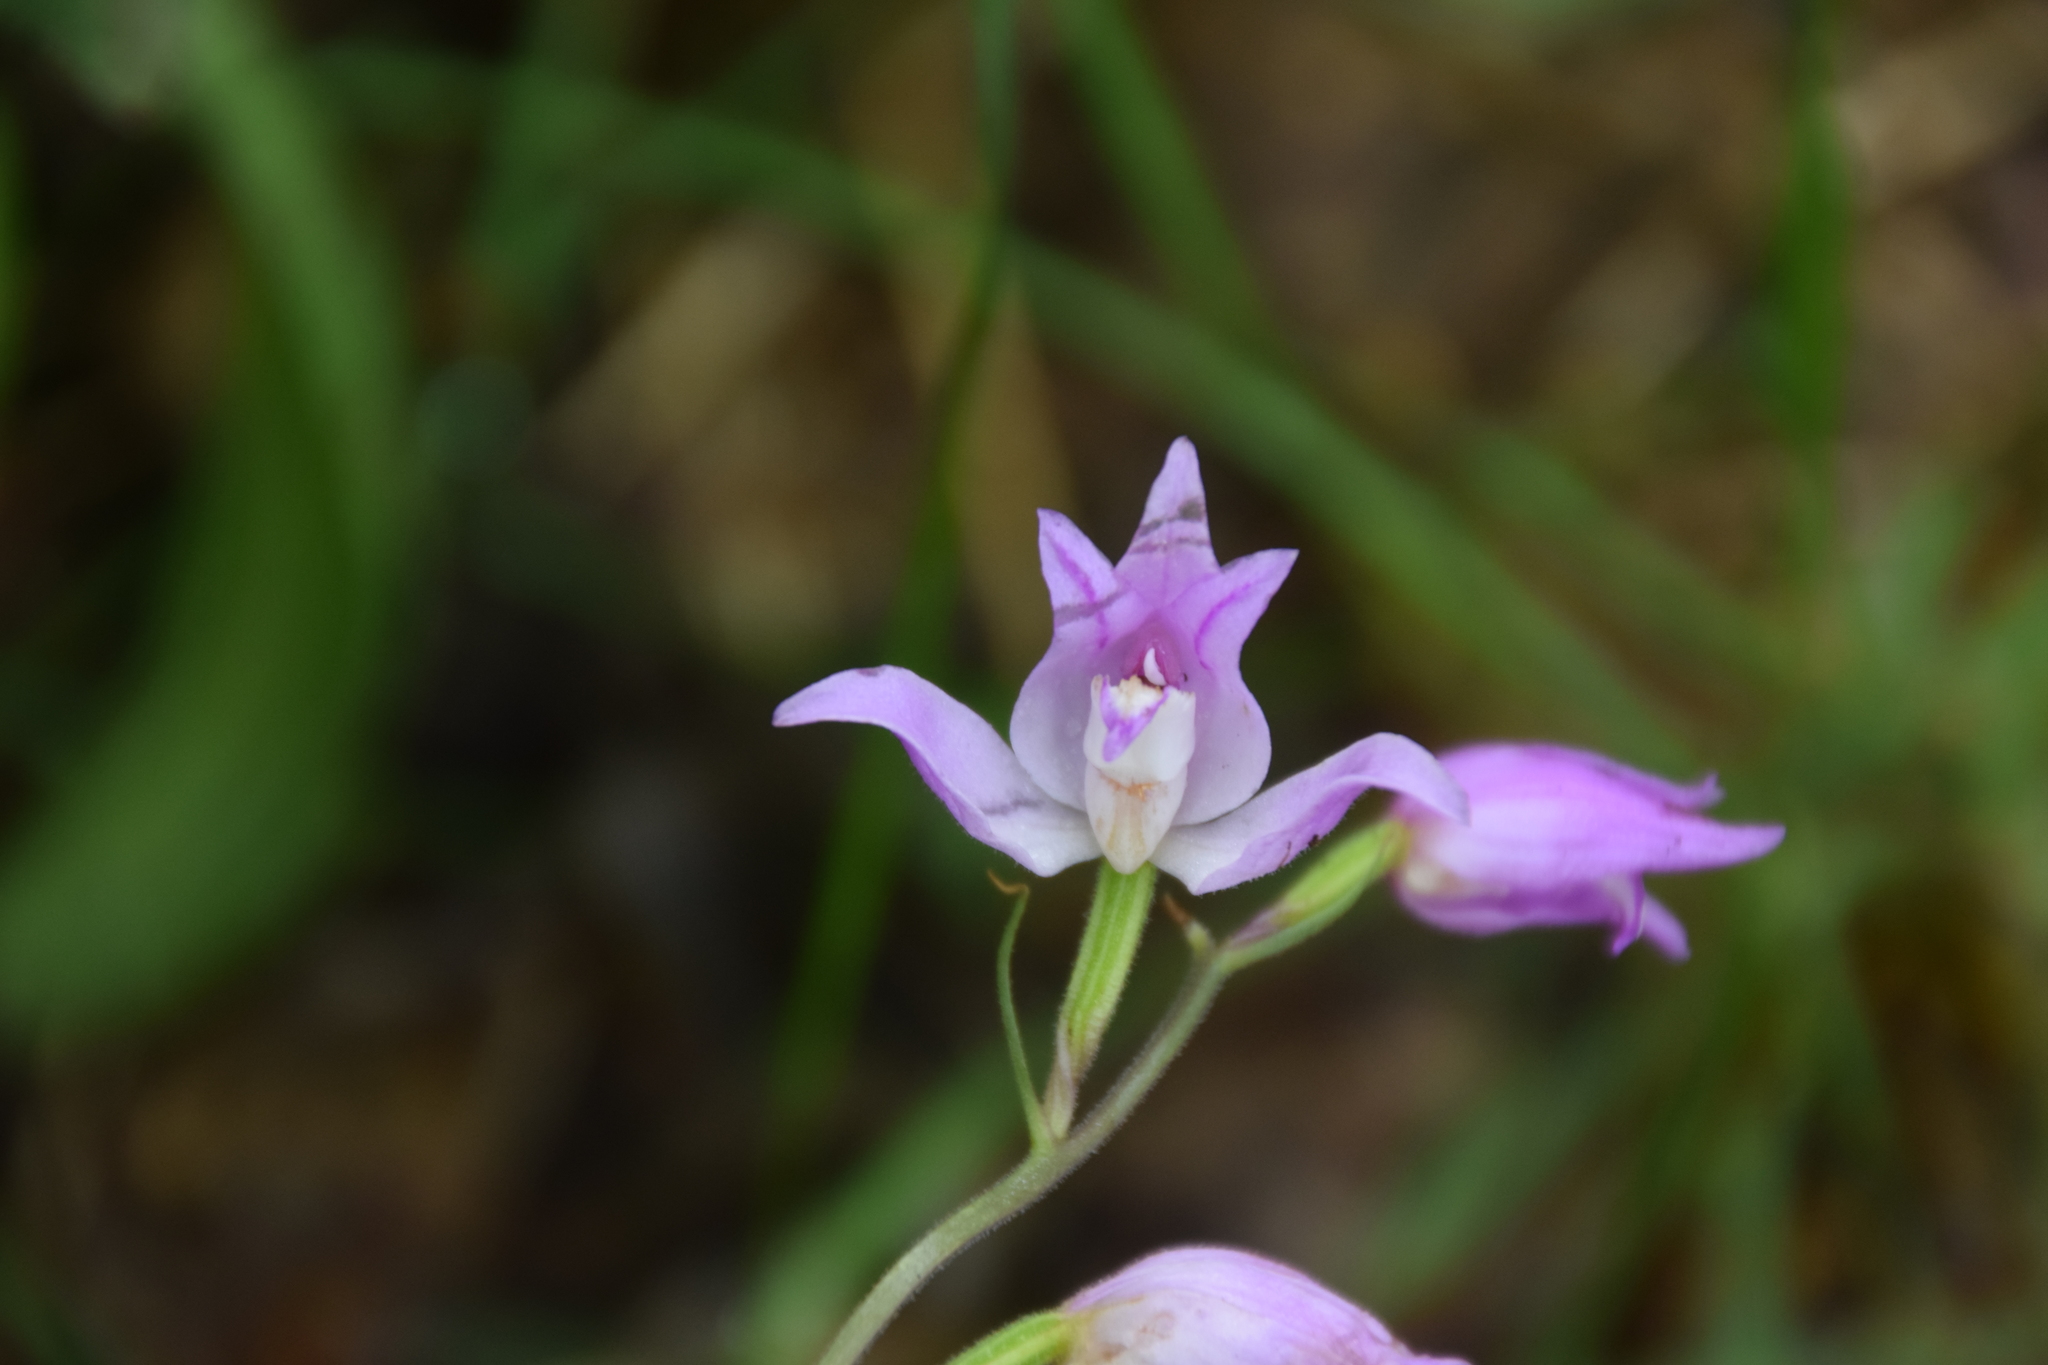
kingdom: Plantae
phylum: Tracheophyta
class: Liliopsida
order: Asparagales
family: Orchidaceae
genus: Cephalanthera
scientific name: Cephalanthera rubra
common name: Red helleborine
